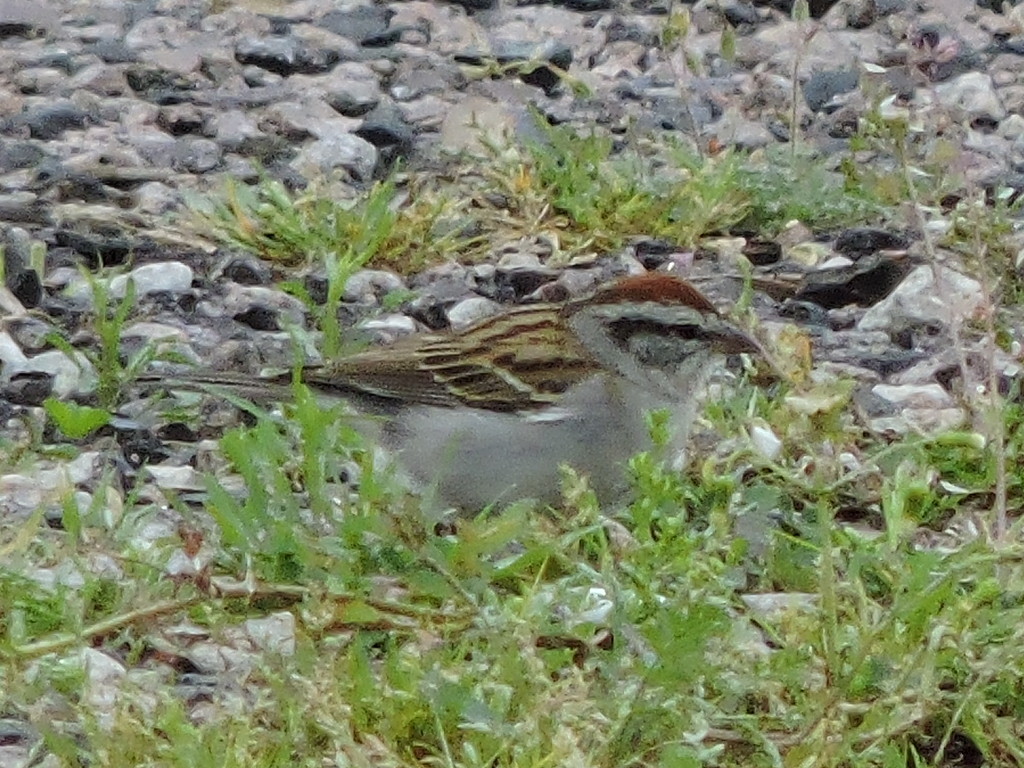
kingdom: Animalia
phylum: Chordata
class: Aves
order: Passeriformes
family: Passerellidae
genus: Spizella
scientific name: Spizella passerina
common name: Chipping sparrow
